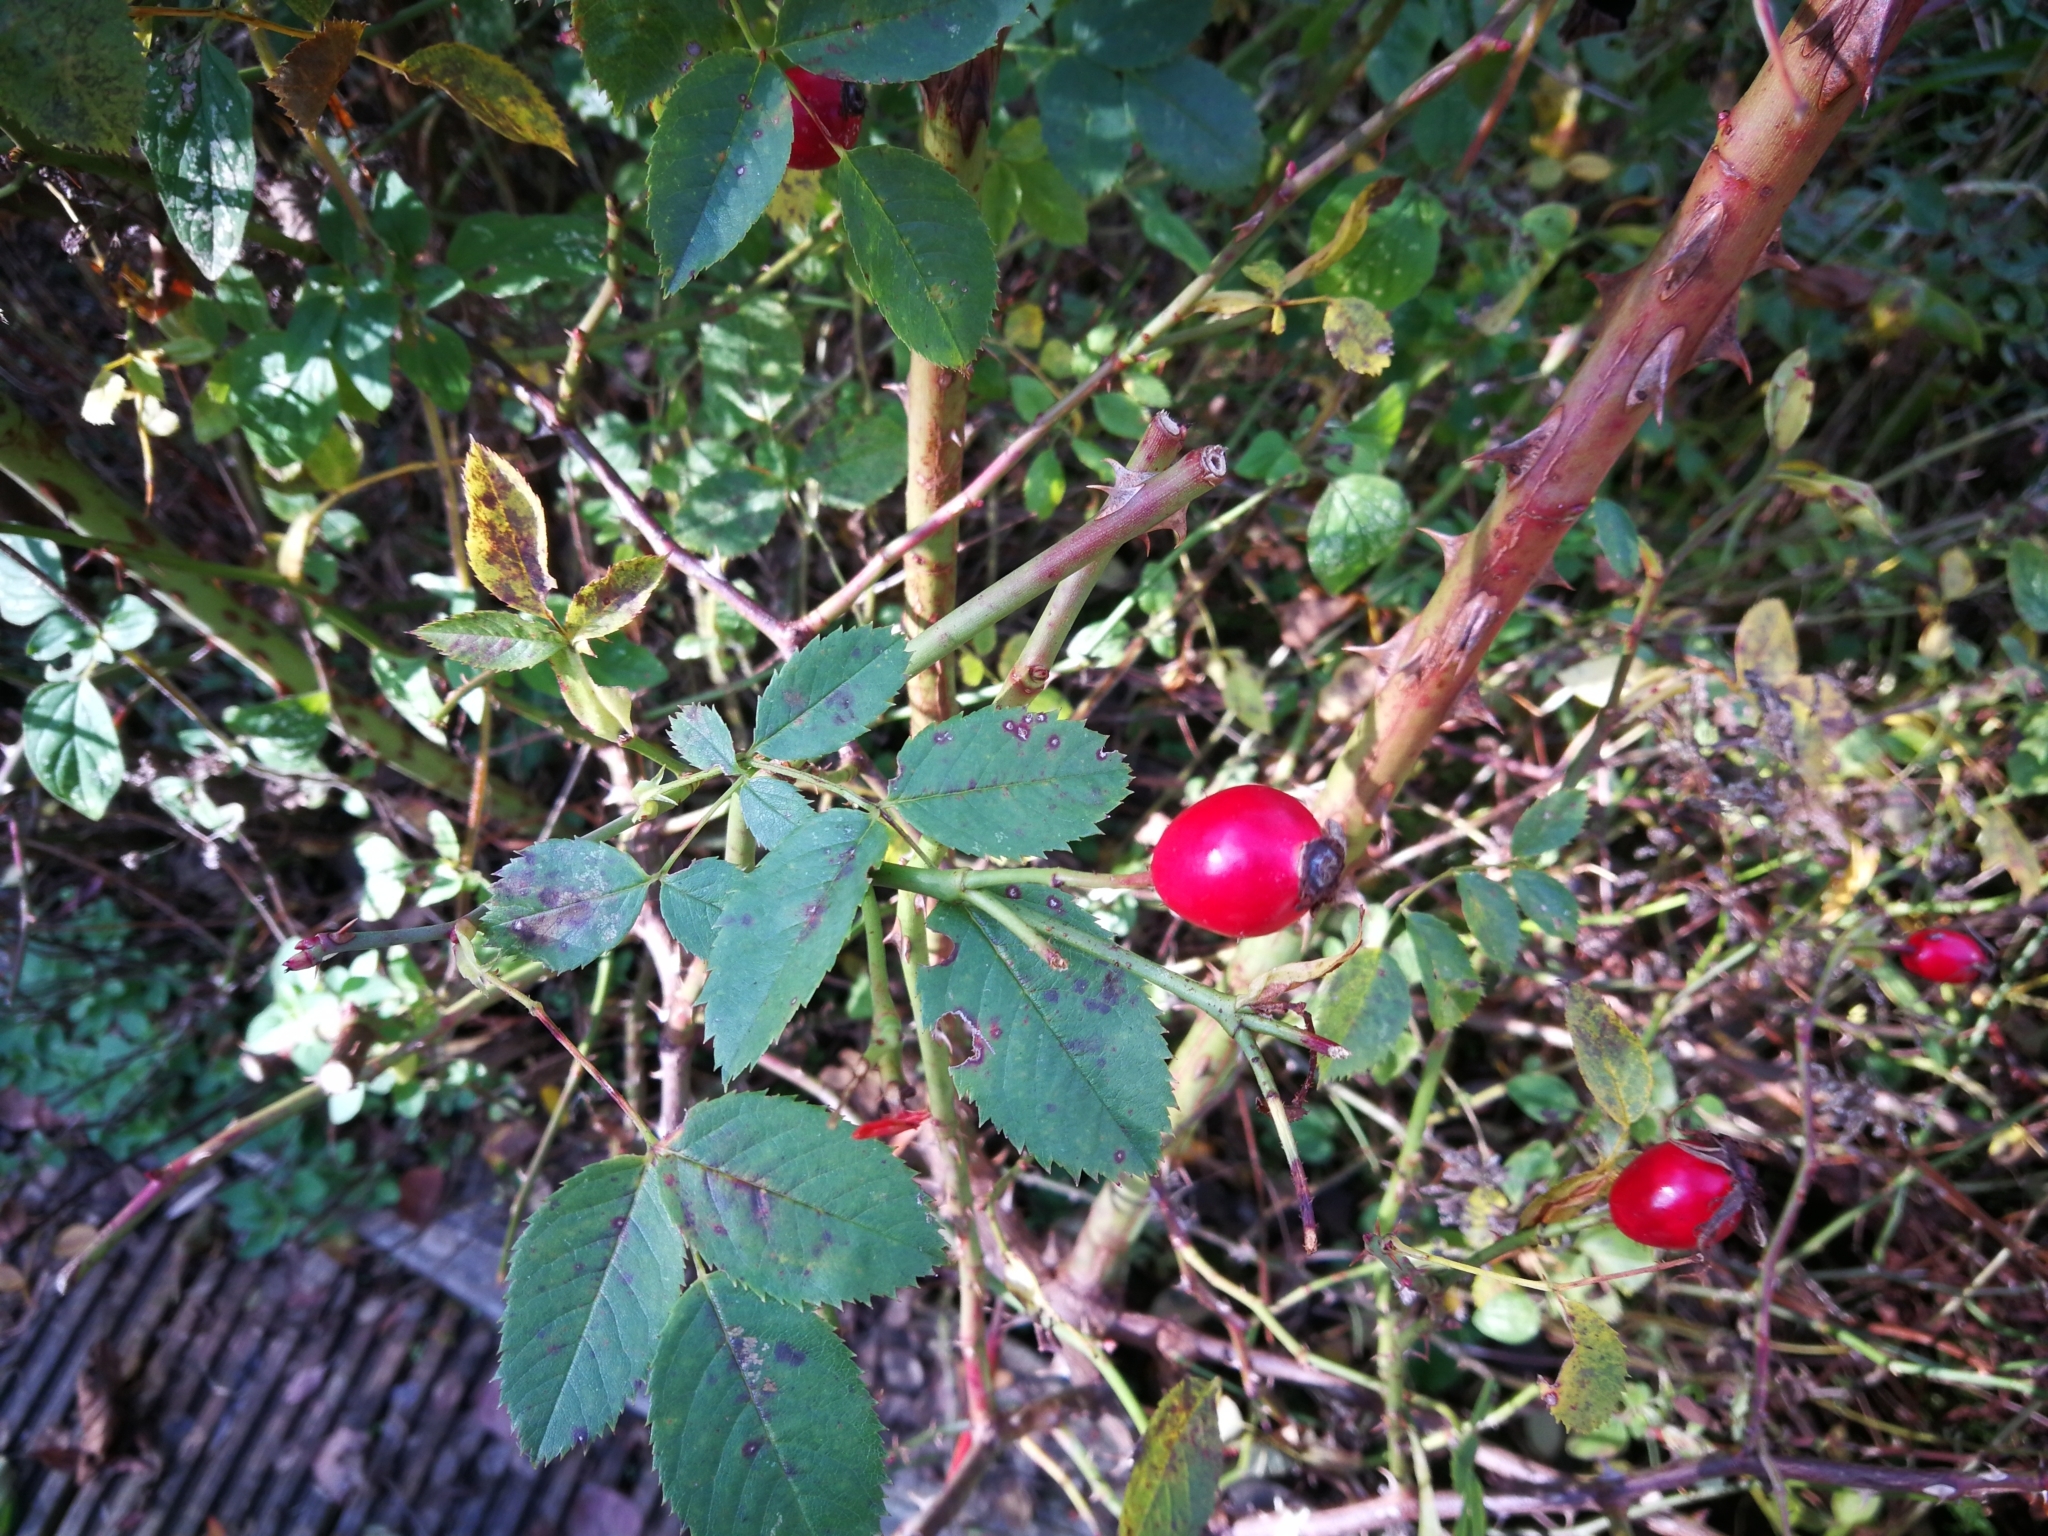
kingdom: Plantae
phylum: Tracheophyta
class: Magnoliopsida
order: Rosales
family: Rosaceae
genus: Rosa
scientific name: Rosa canina
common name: Dog rose
